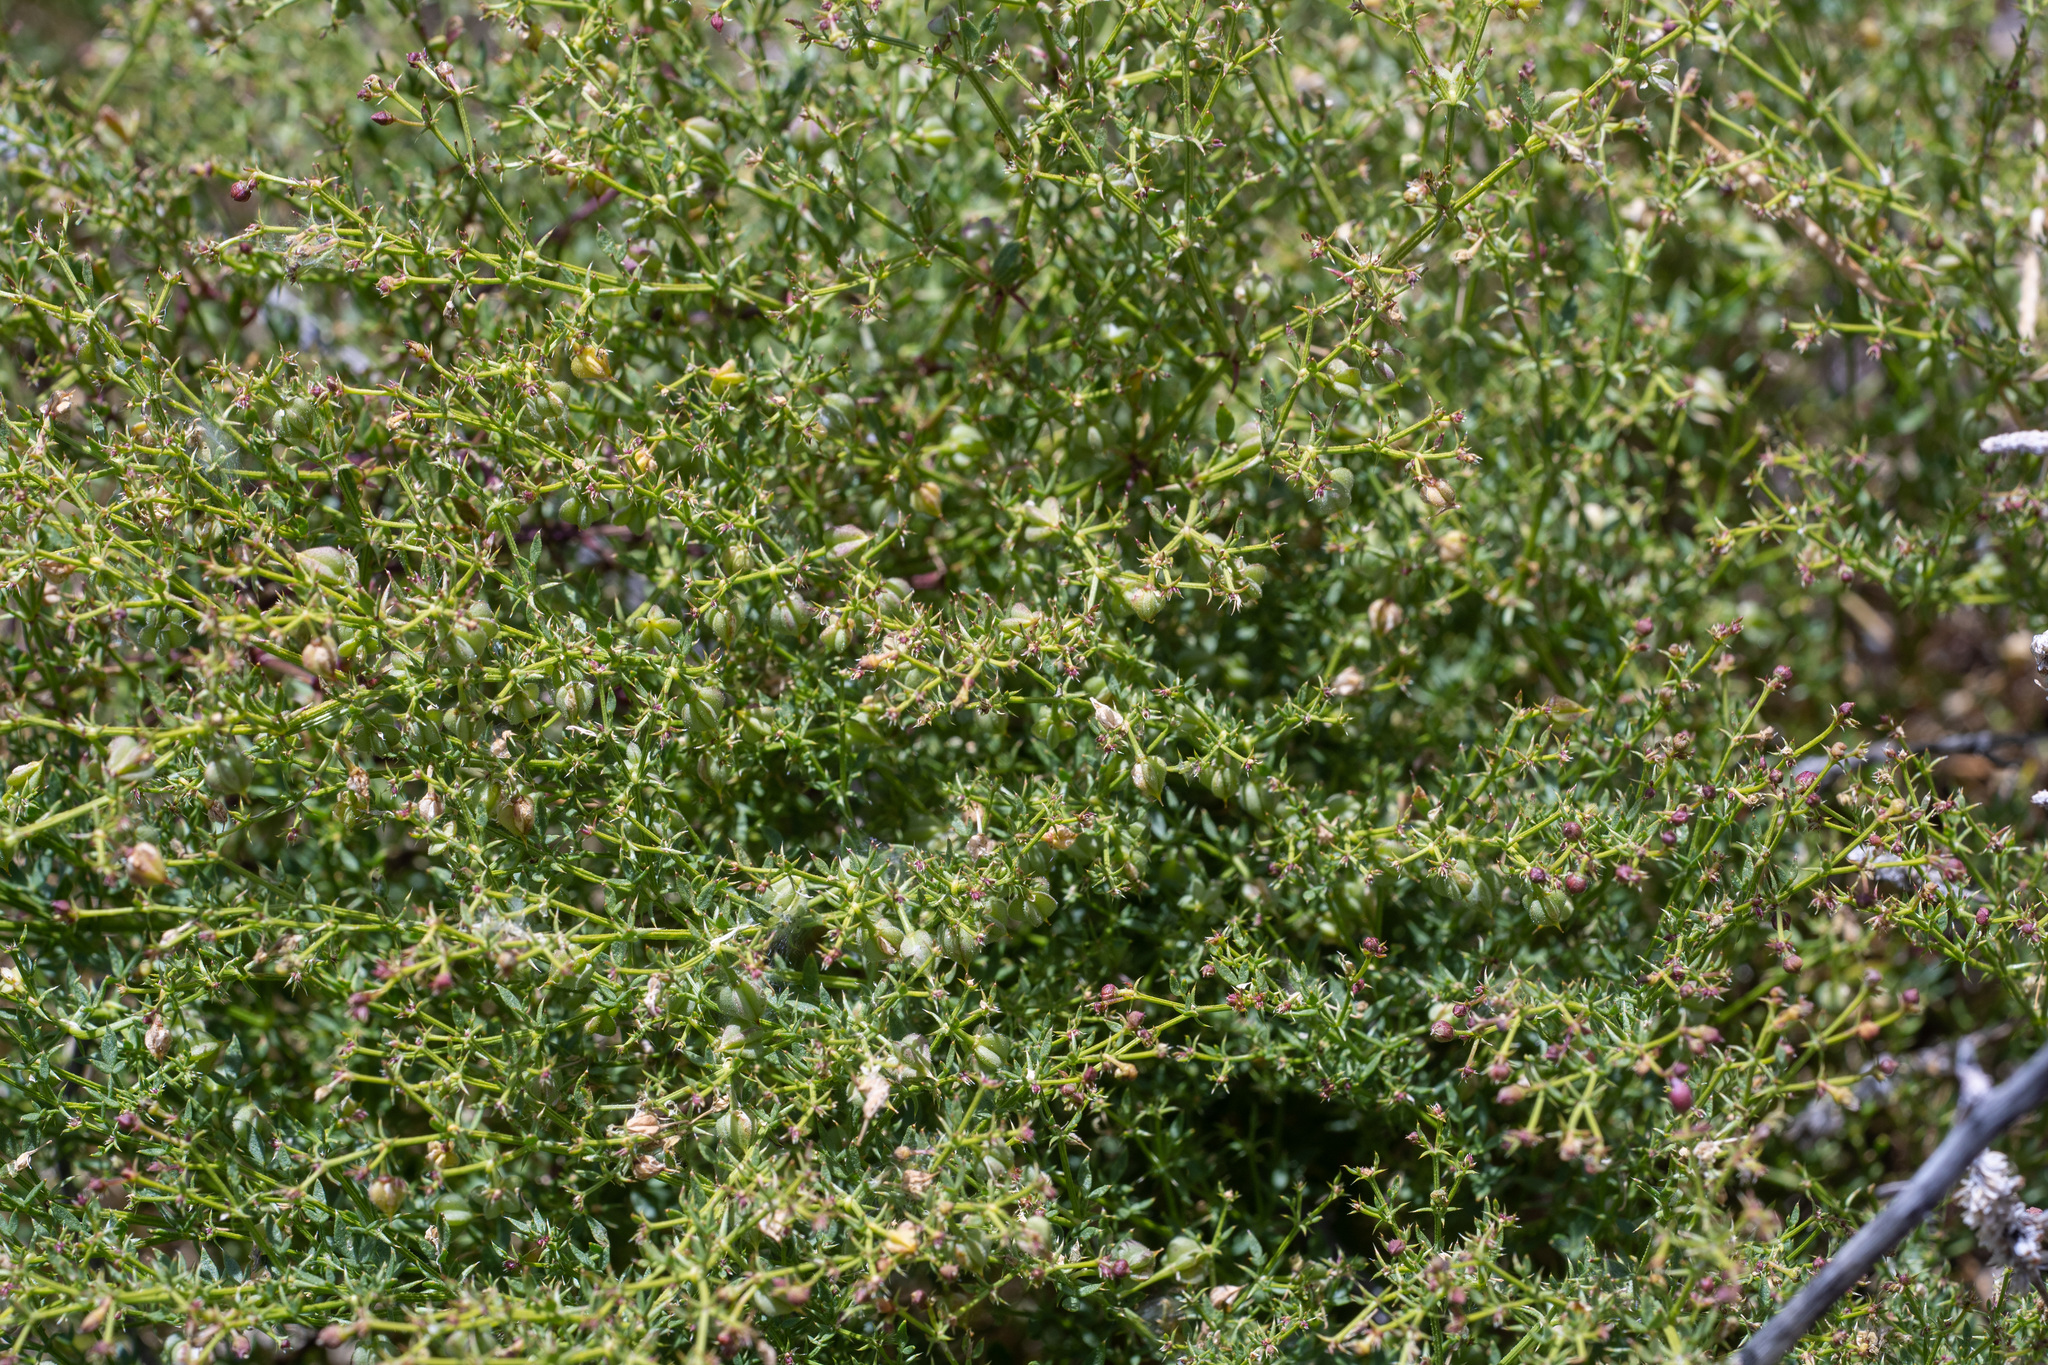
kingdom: Plantae
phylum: Tracheophyta
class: Magnoliopsida
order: Zygophyllales
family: Zygophyllaceae
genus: Fagonia
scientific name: Fagonia laevis
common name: California fagonbush
